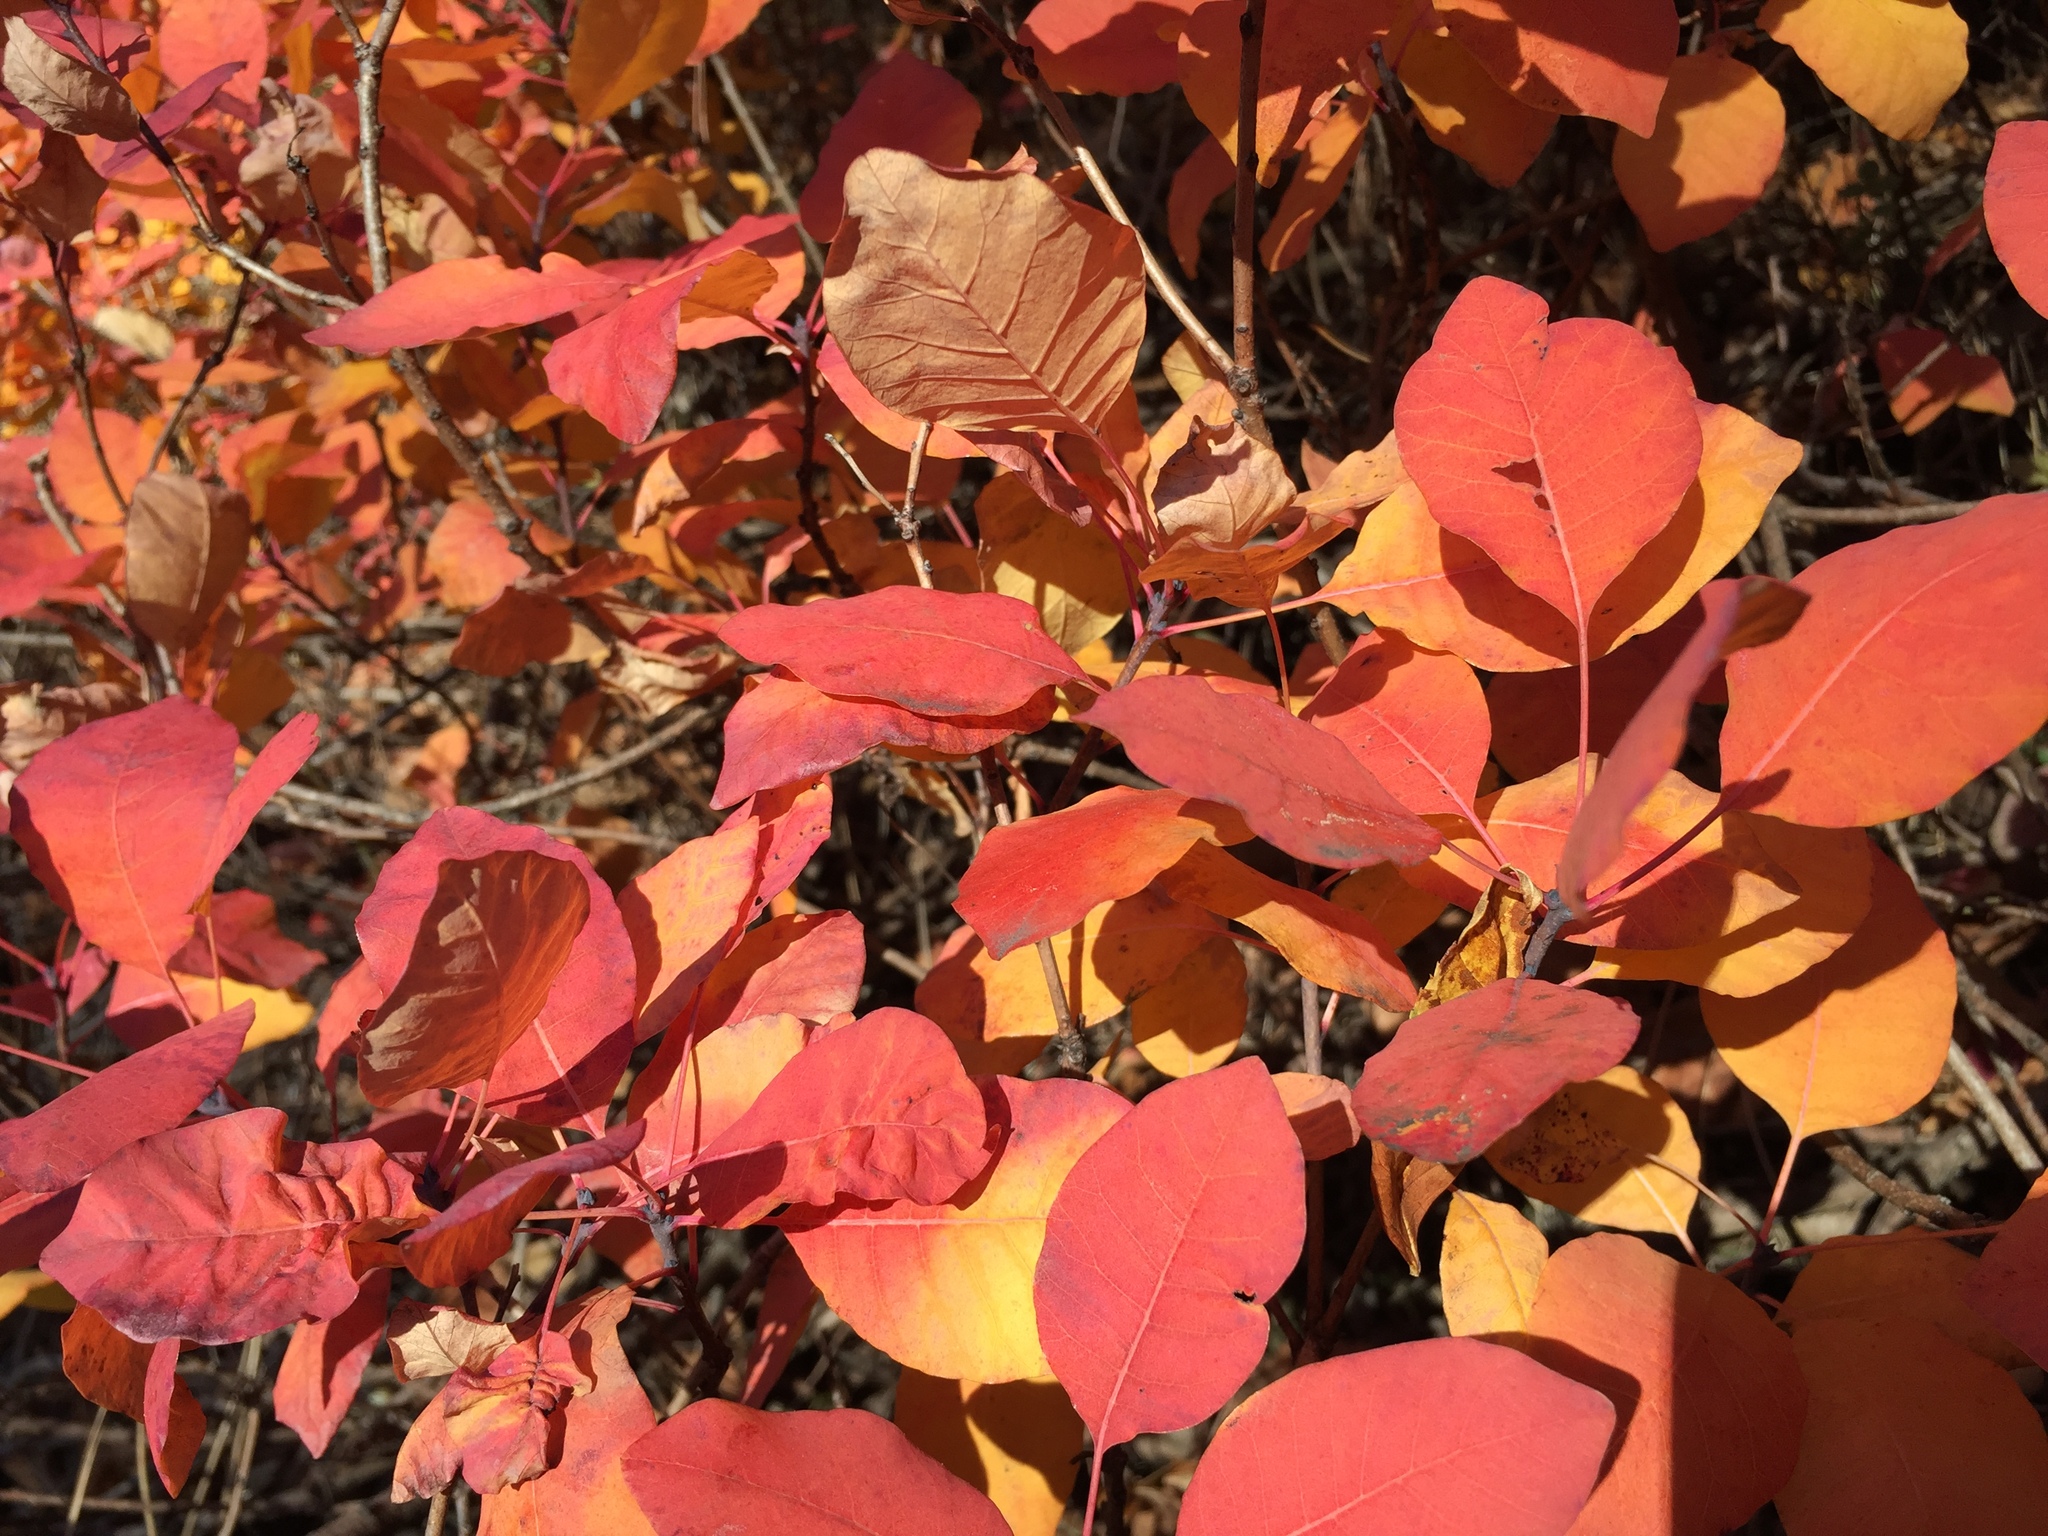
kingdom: Plantae
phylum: Tracheophyta
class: Magnoliopsida
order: Sapindales
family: Anacardiaceae
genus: Cotinus
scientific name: Cotinus coggygria
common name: Smoke-tree
